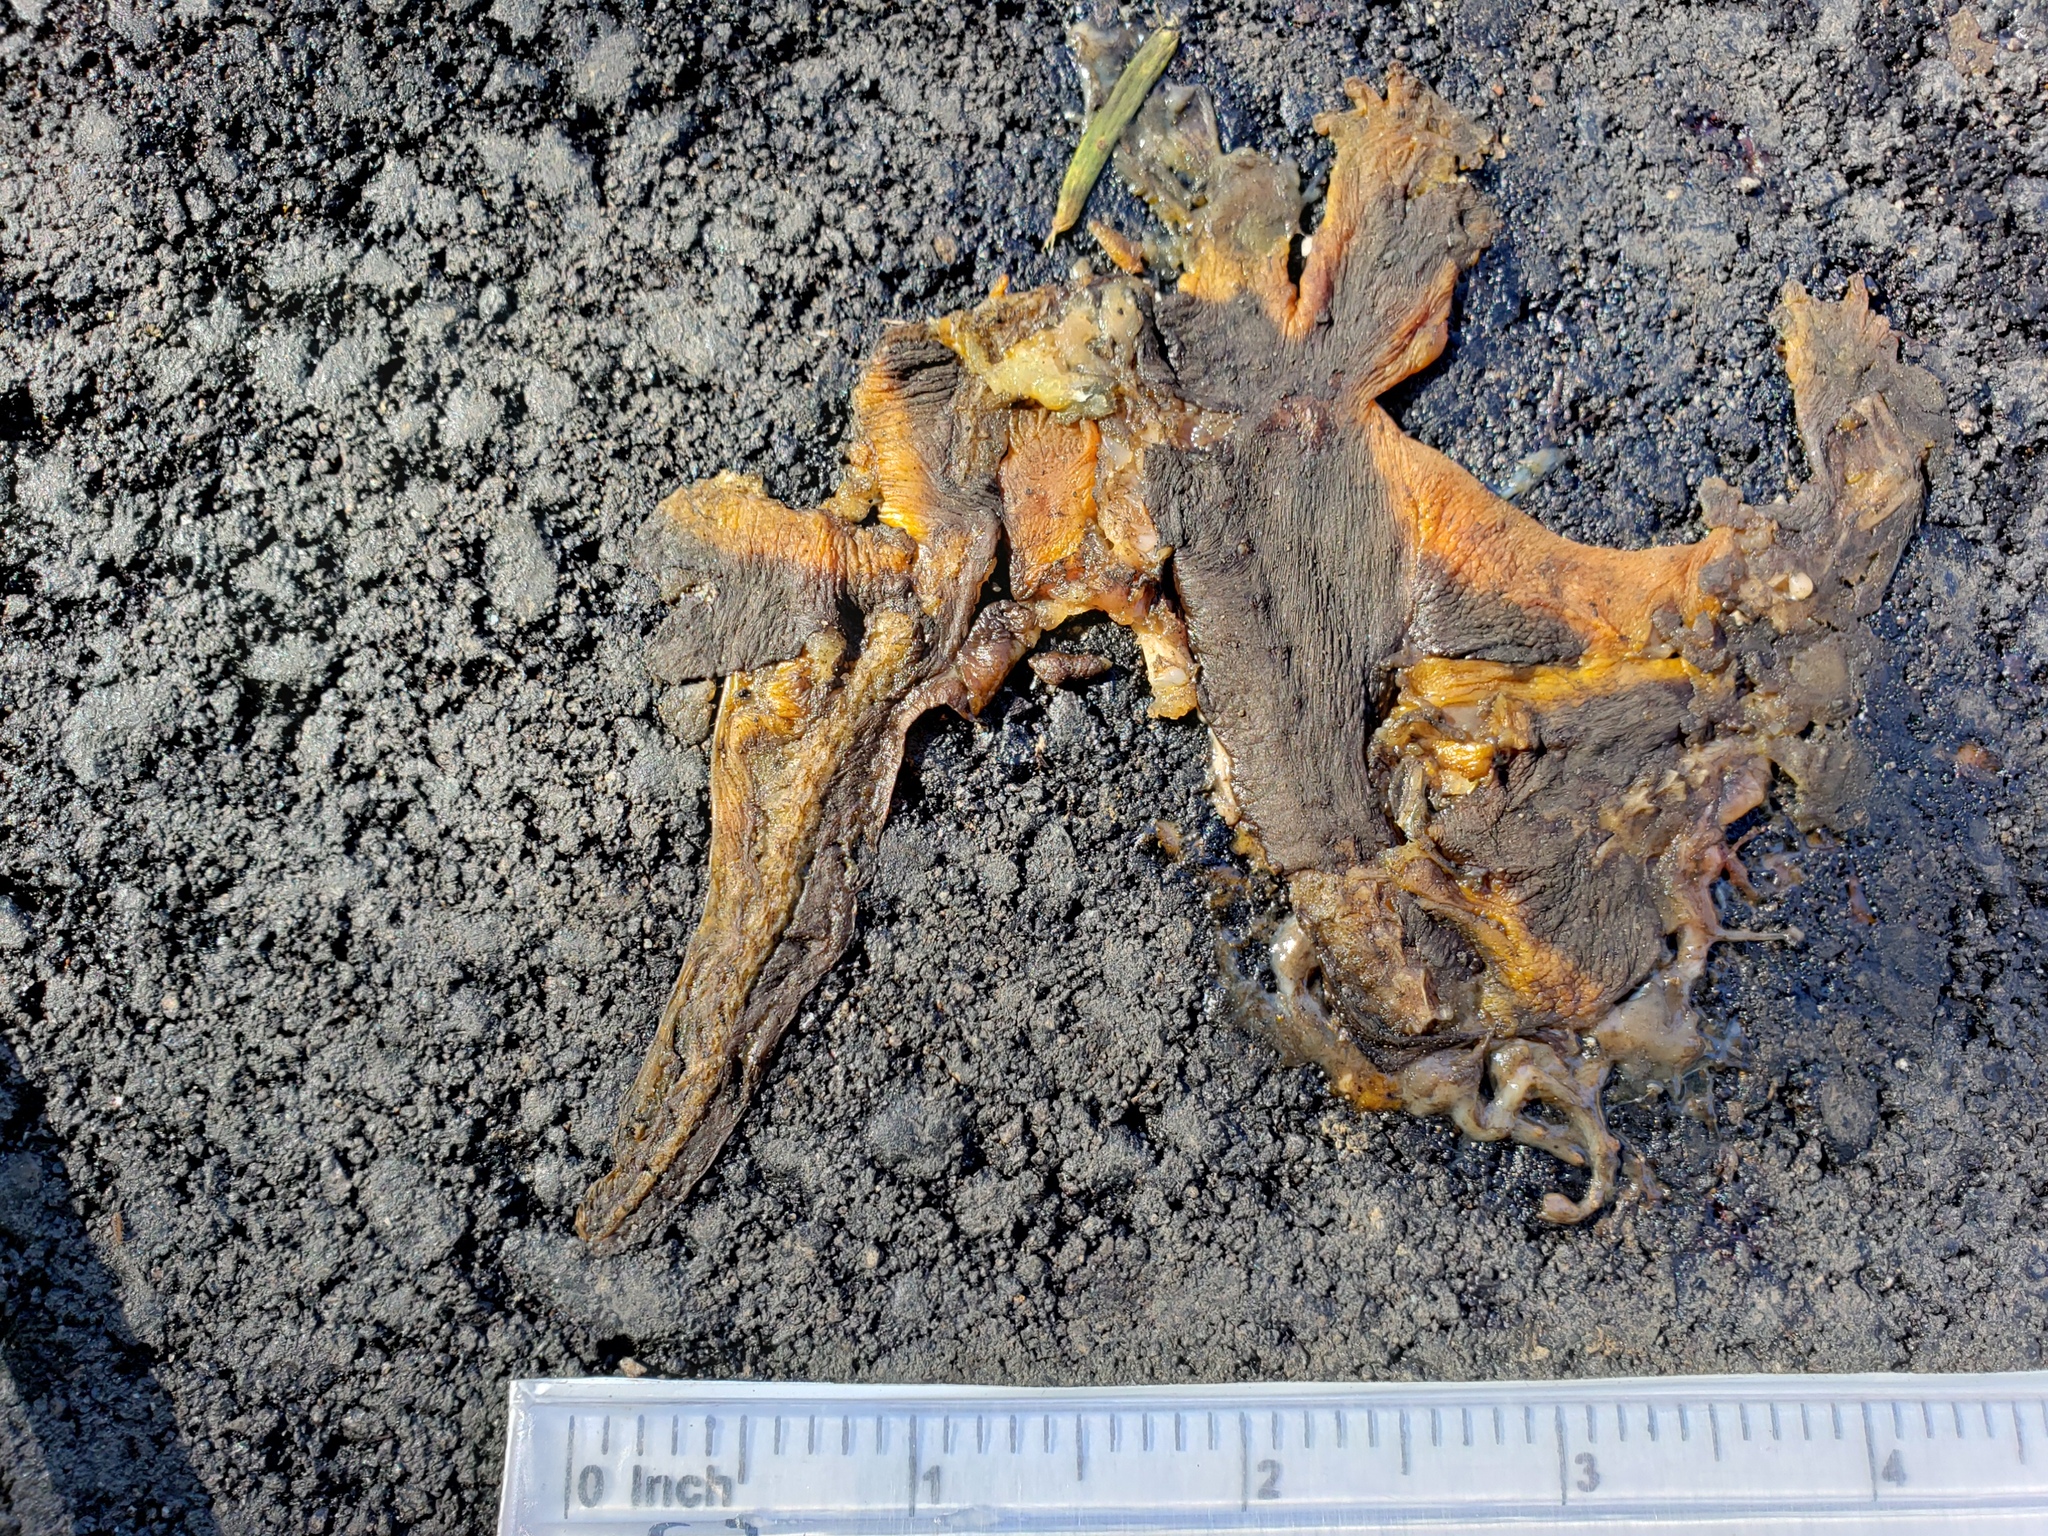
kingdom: Animalia
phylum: Chordata
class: Amphibia
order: Caudata
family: Salamandridae
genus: Taricha
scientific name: Taricha
